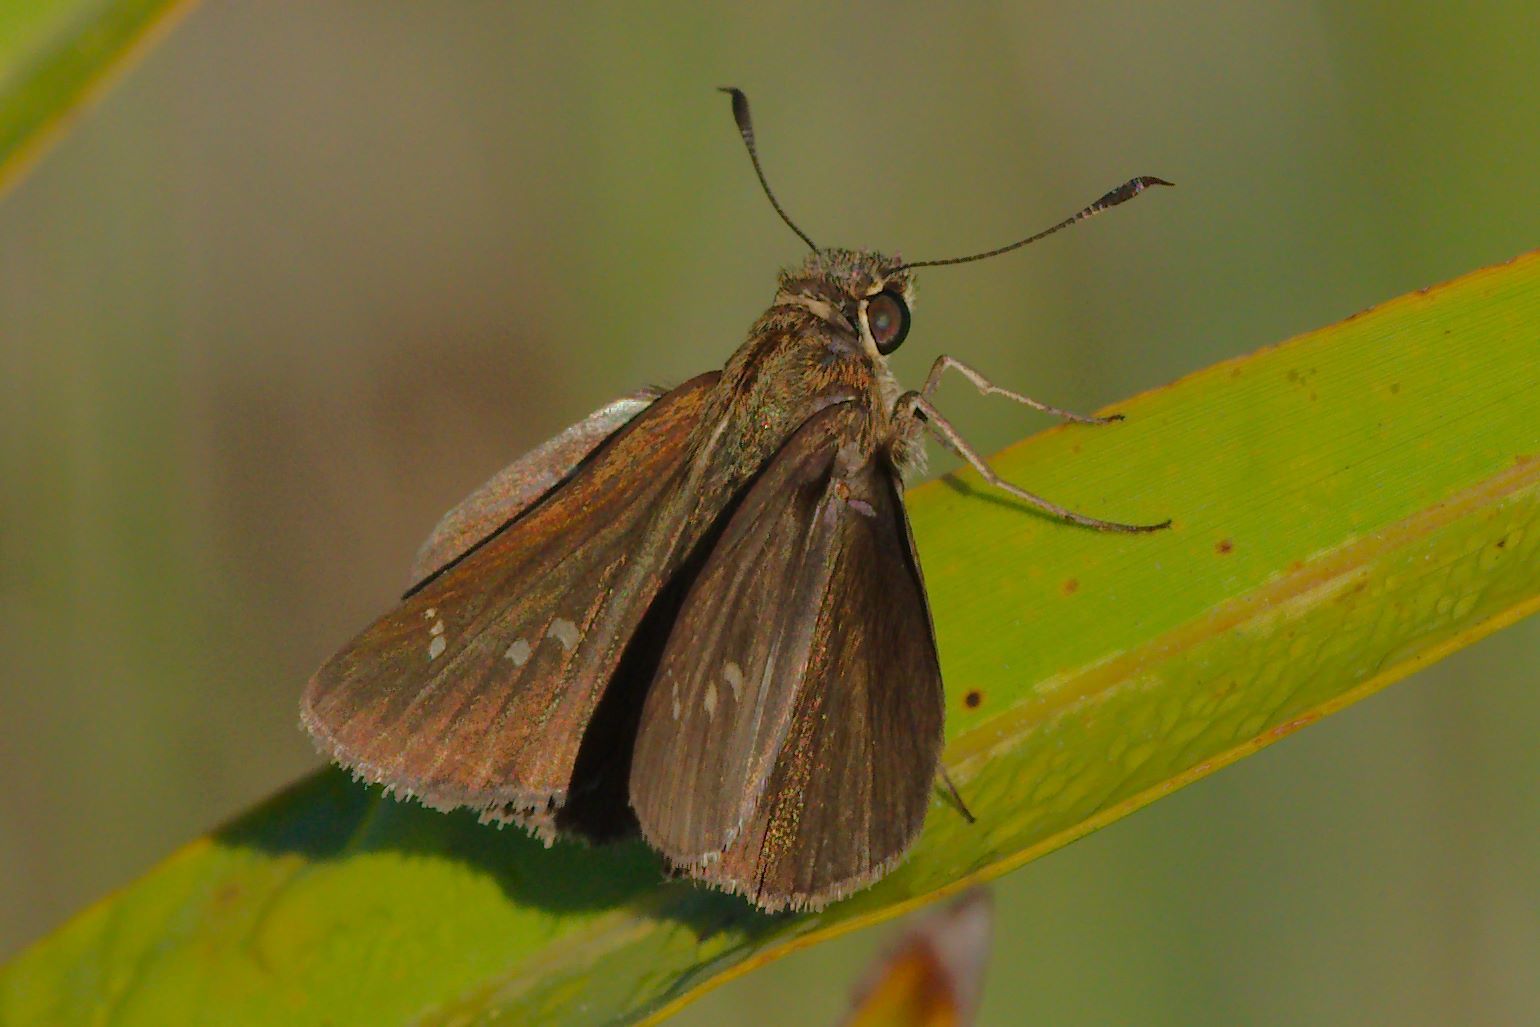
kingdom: Animalia
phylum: Arthropoda
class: Insecta
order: Lepidoptera
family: Hesperiidae
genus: Oligoria
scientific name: Oligoria maculata
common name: Twin-spot skipper
